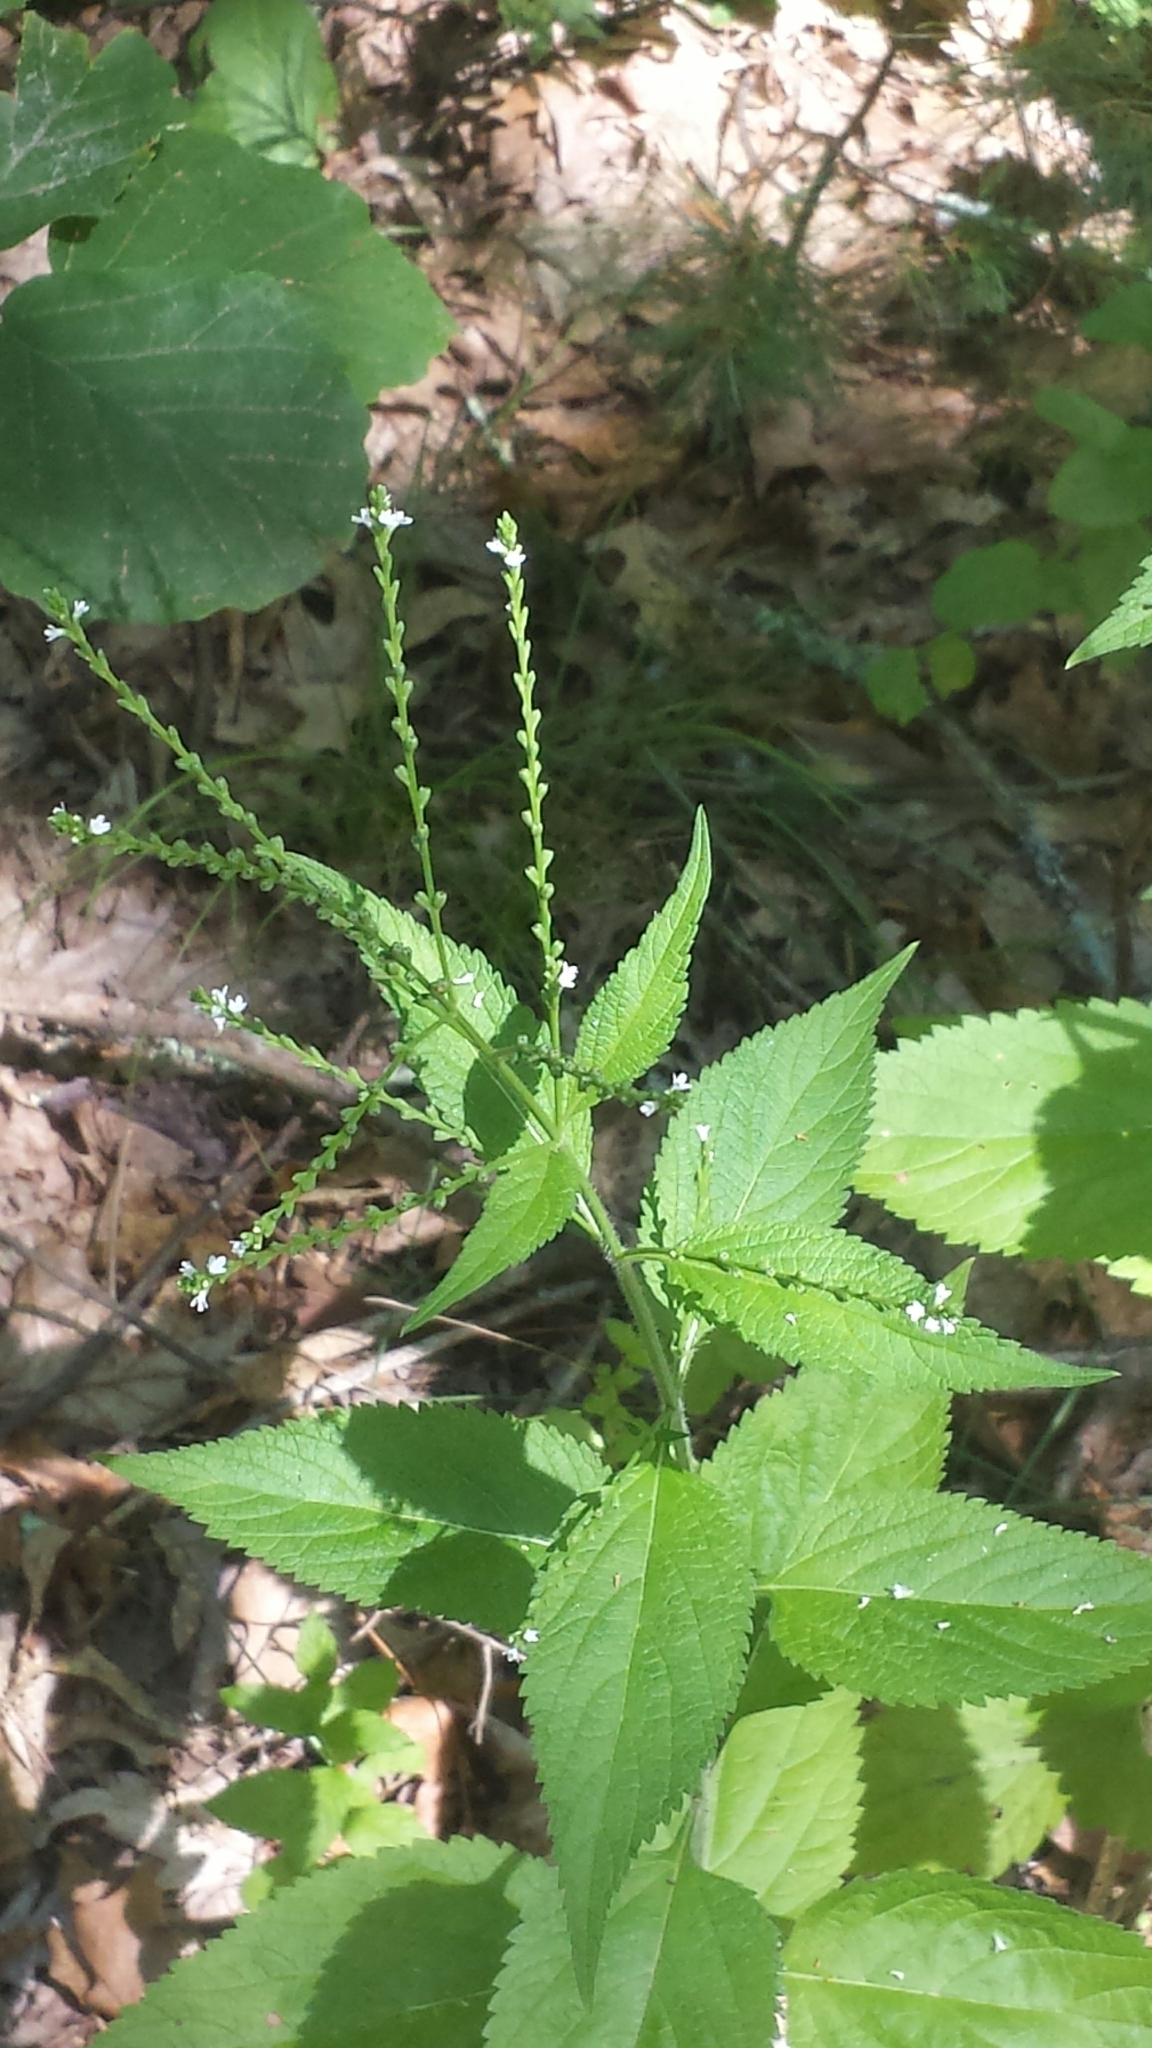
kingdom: Plantae
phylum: Tracheophyta
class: Magnoliopsida
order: Lamiales
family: Verbenaceae
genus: Verbena
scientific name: Verbena urticifolia
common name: Nettle-leaved vervain
